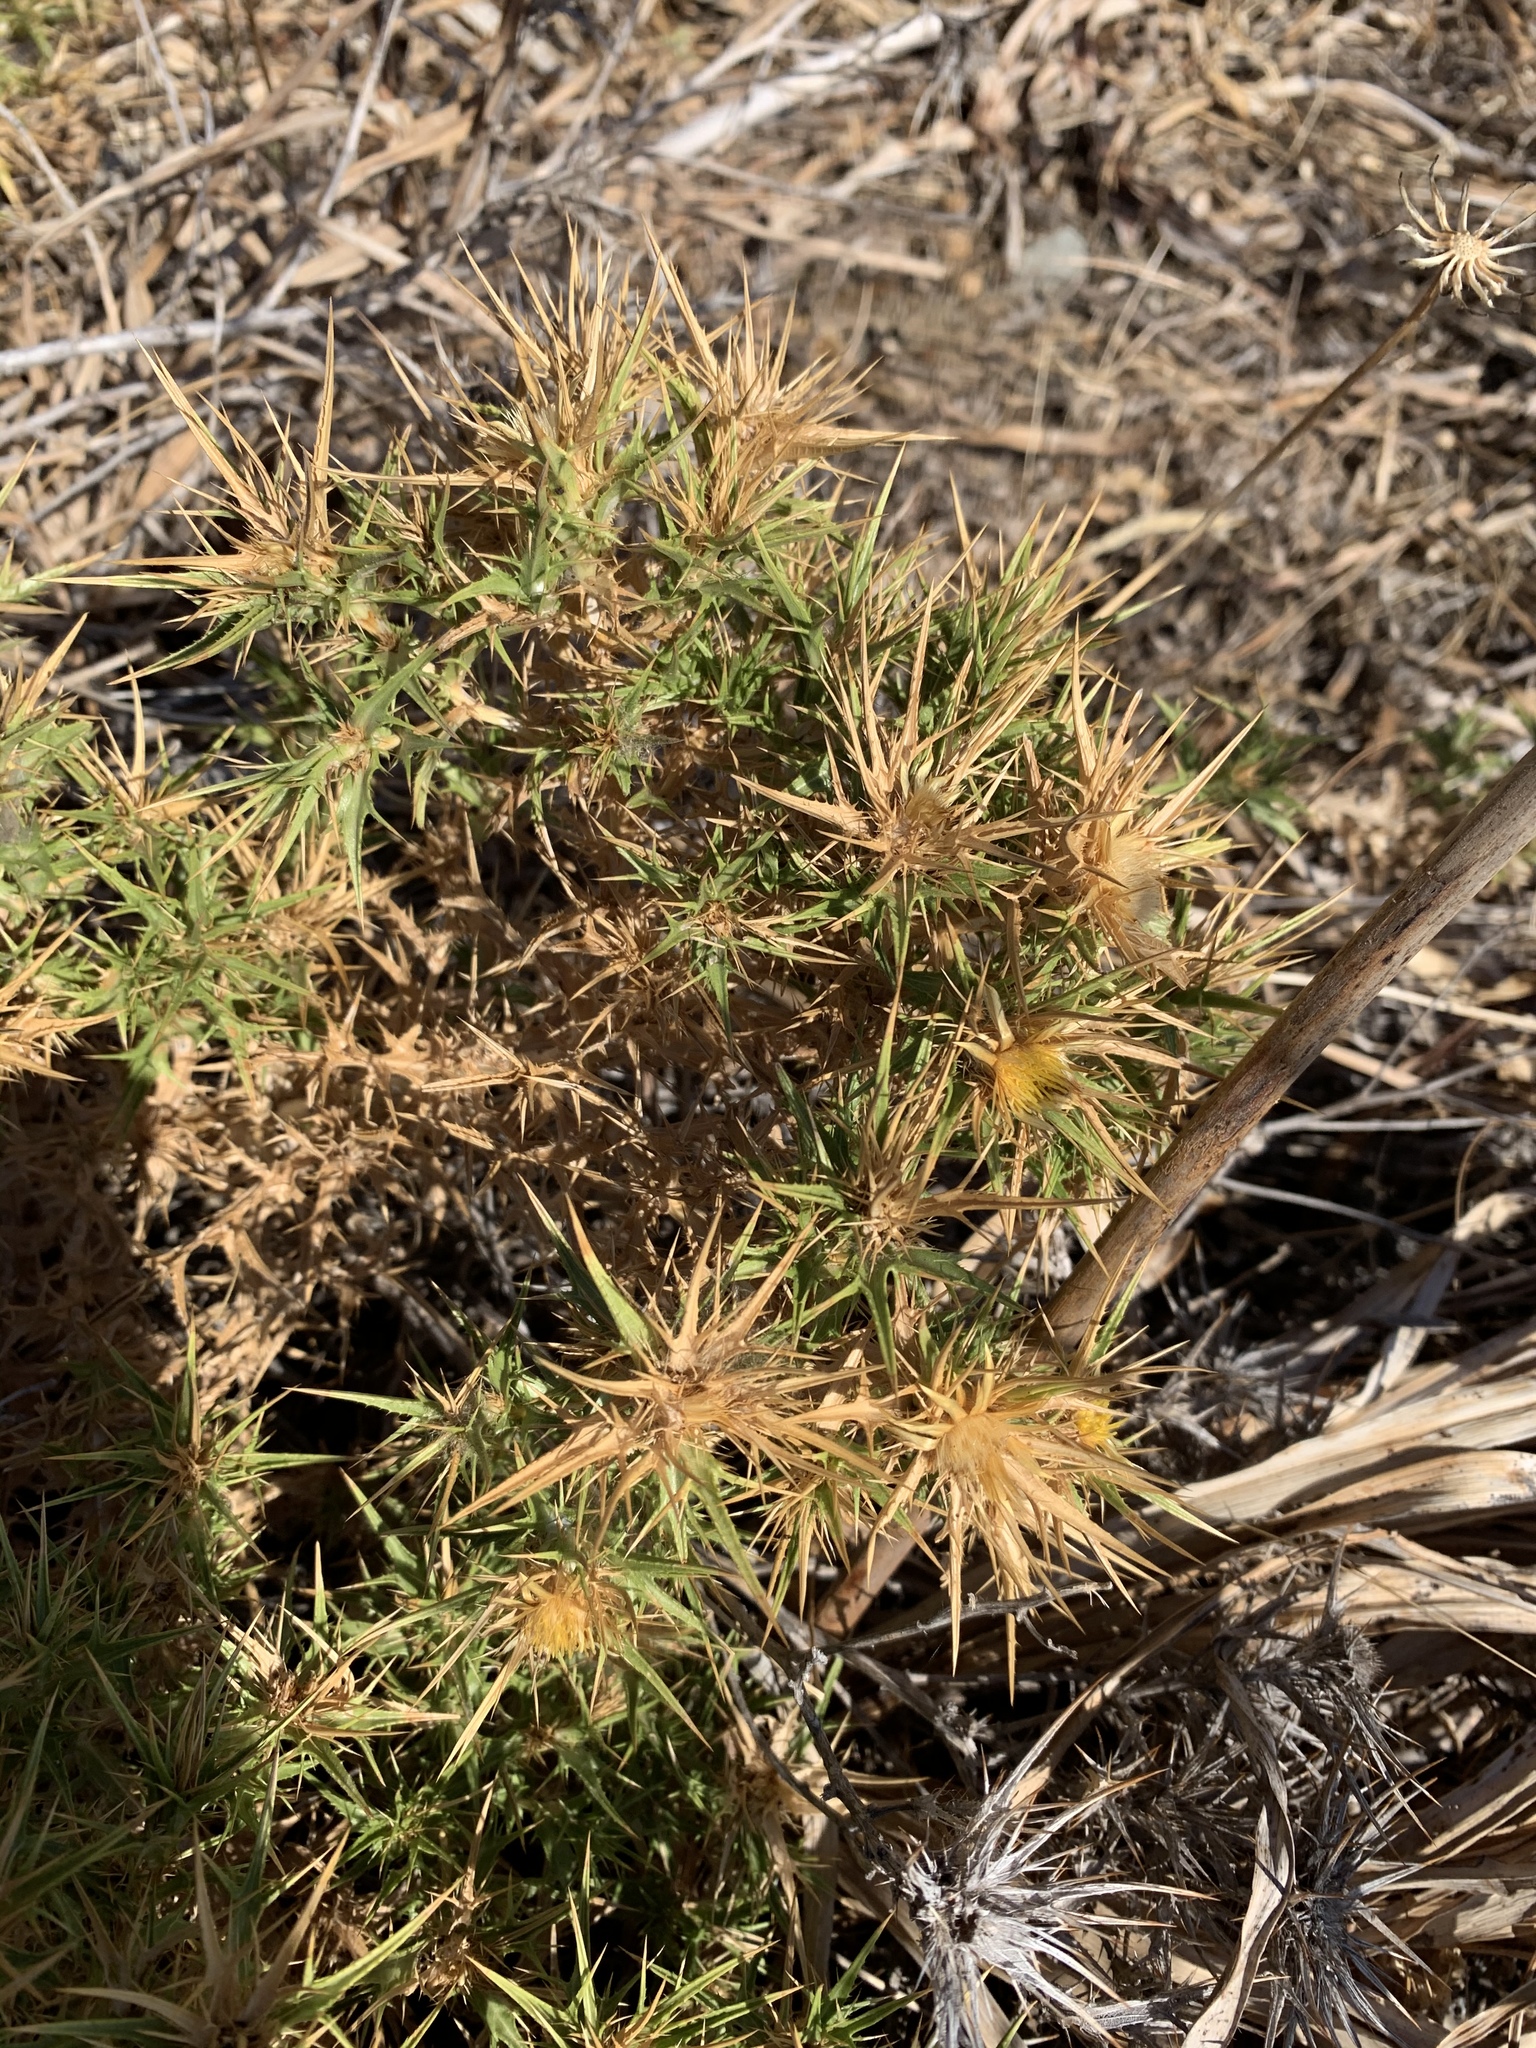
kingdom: Plantae
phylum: Tracheophyta
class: Magnoliopsida
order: Asterales
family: Asteraceae
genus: Carlina
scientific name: Carlina corymbosa
